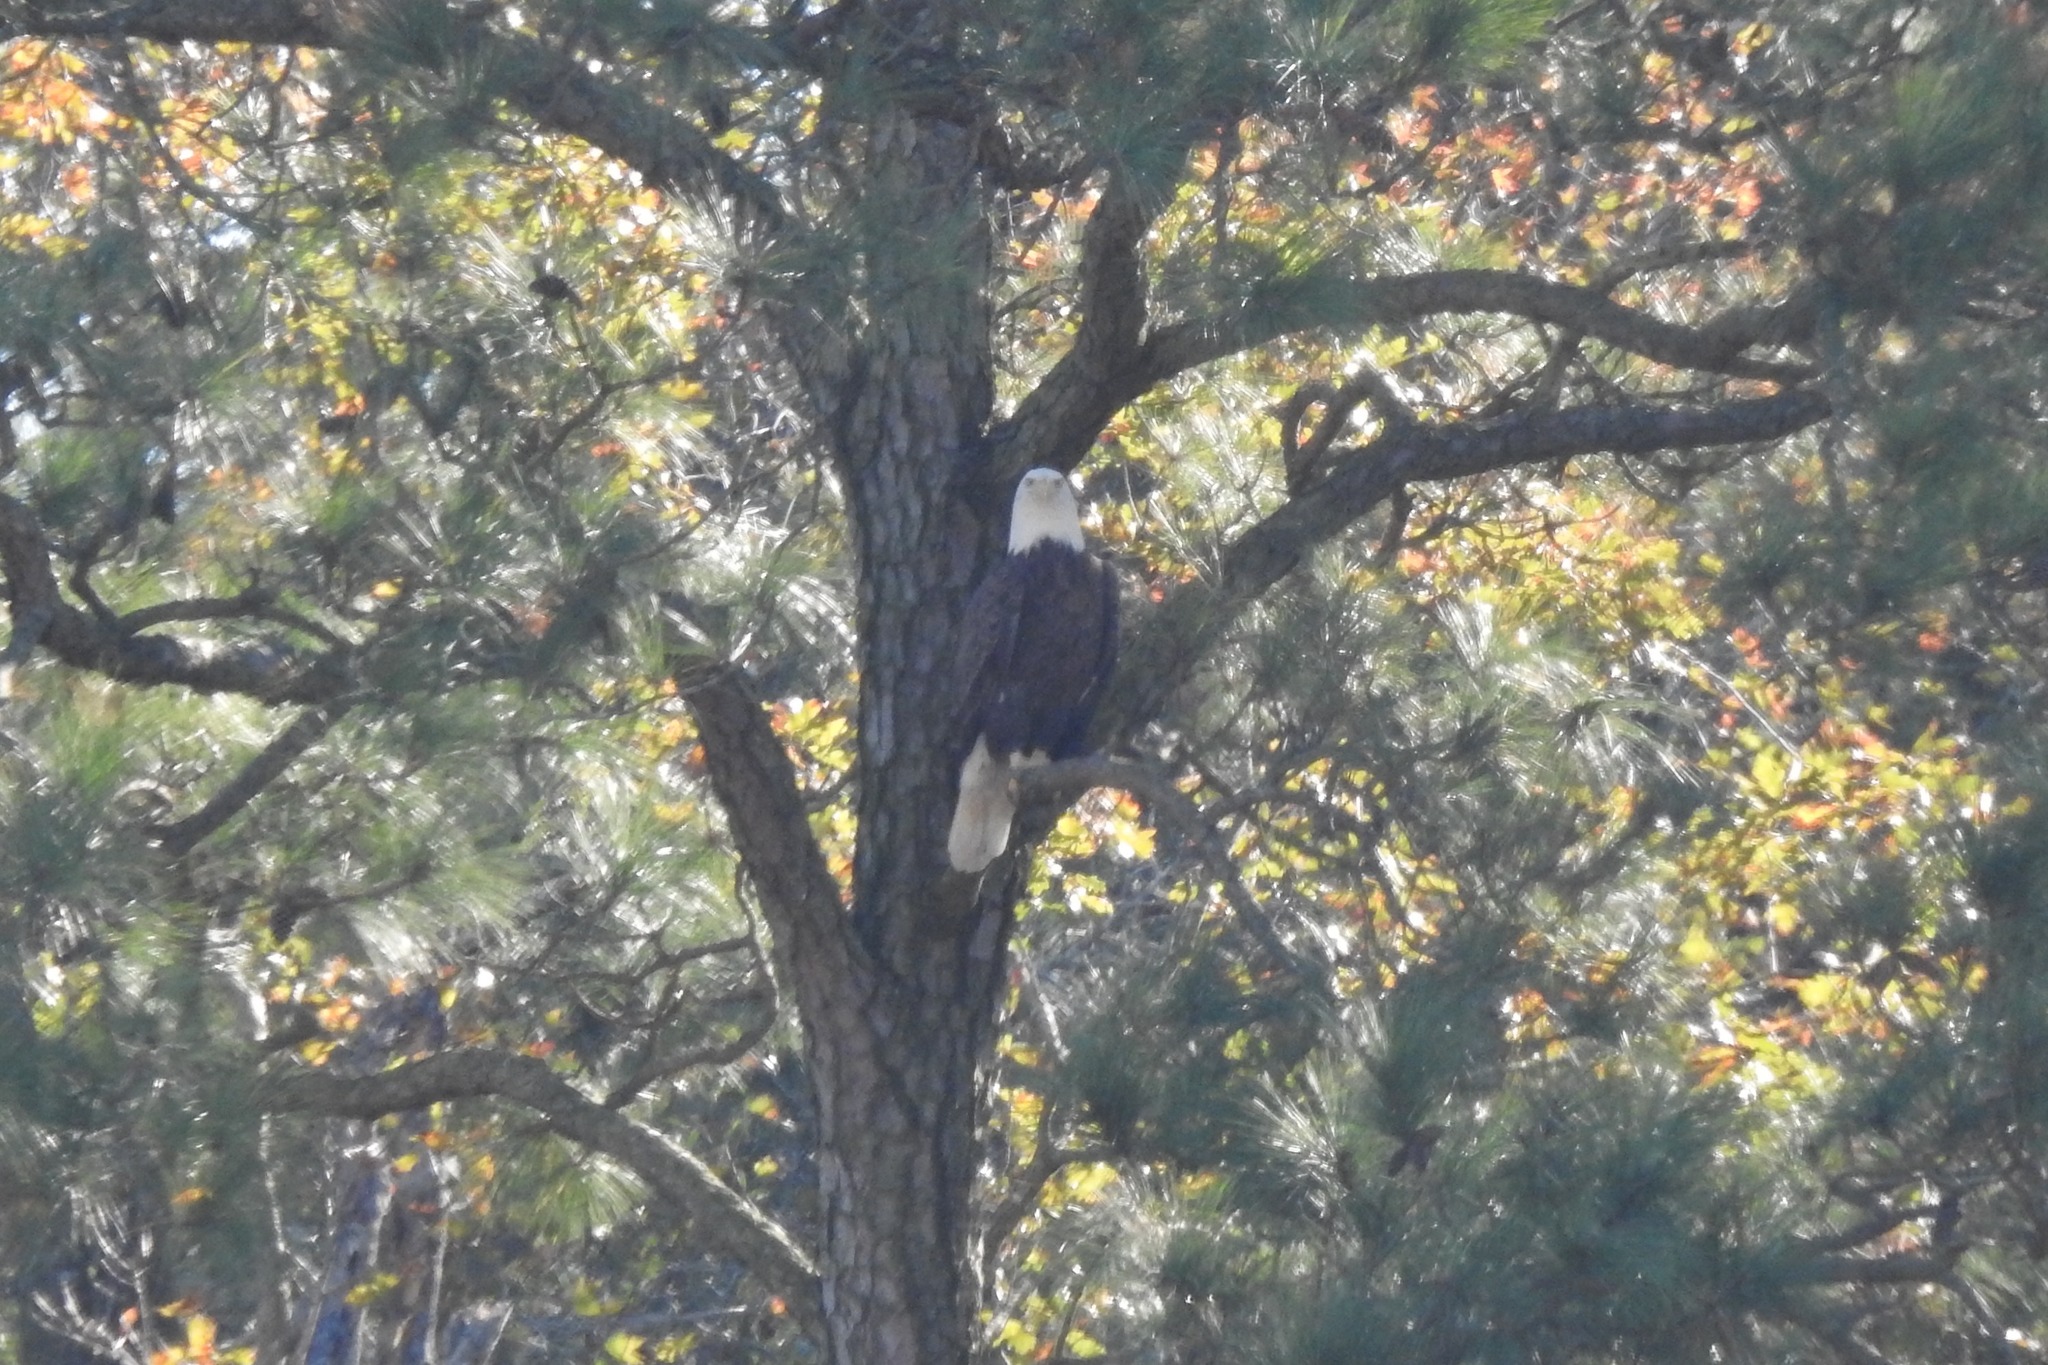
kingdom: Animalia
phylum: Chordata
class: Aves
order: Accipitriformes
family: Accipitridae
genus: Haliaeetus
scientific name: Haliaeetus leucocephalus
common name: Bald eagle
